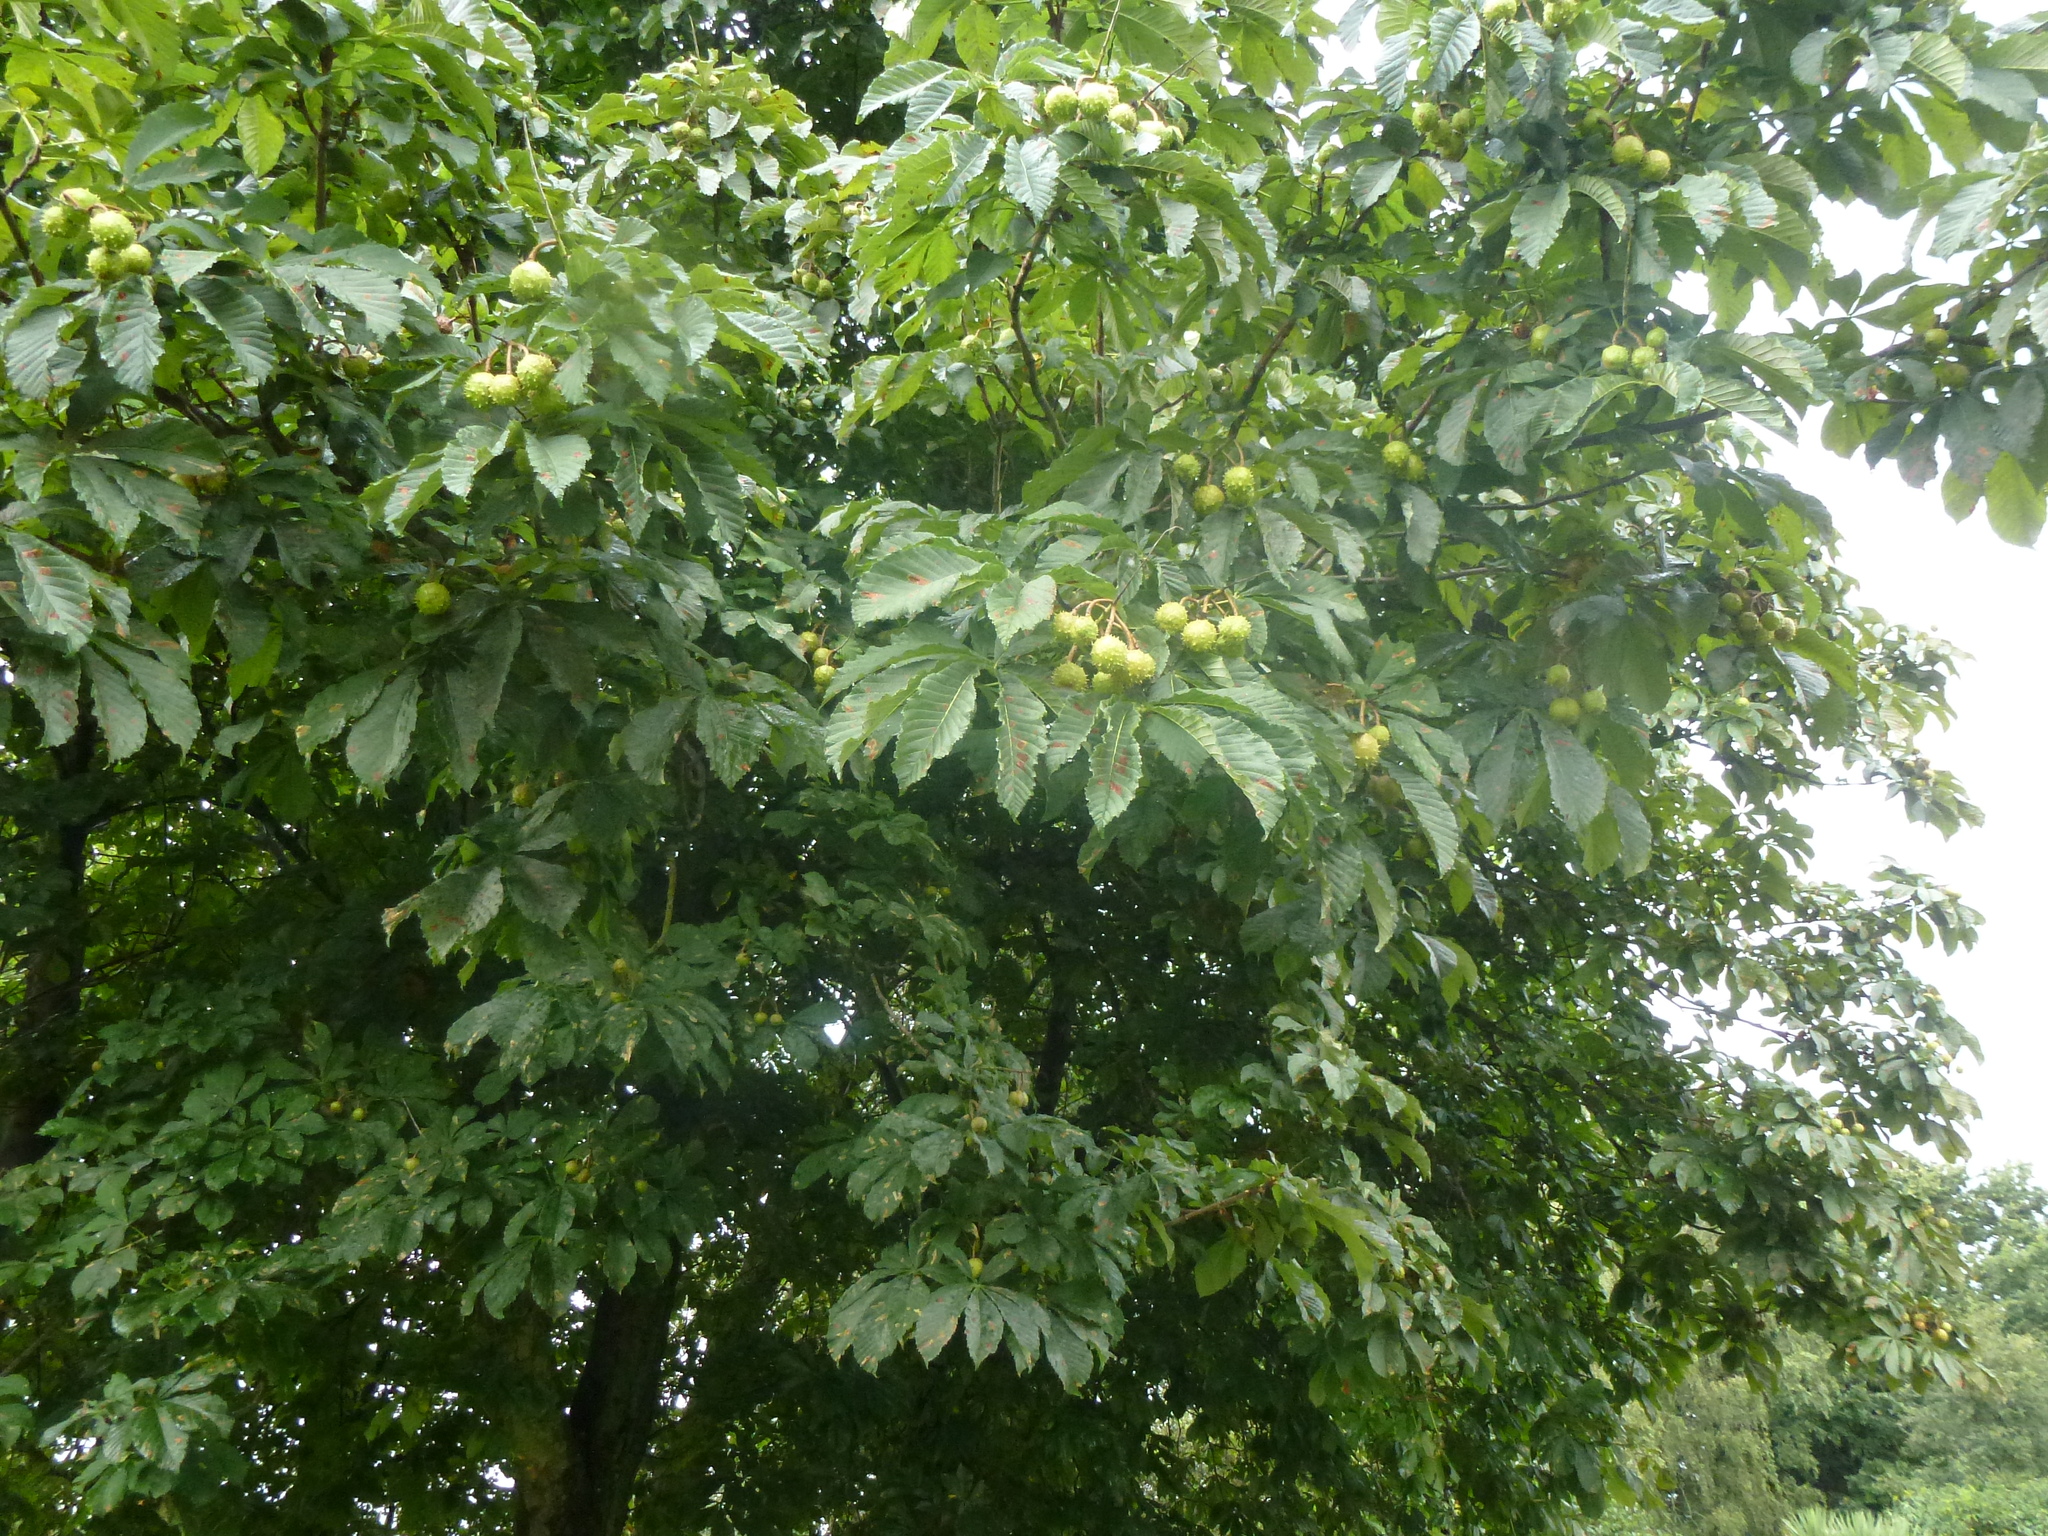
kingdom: Plantae
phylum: Tracheophyta
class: Magnoliopsida
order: Sapindales
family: Sapindaceae
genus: Aesculus
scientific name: Aesculus hippocastanum
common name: Horse-chestnut
